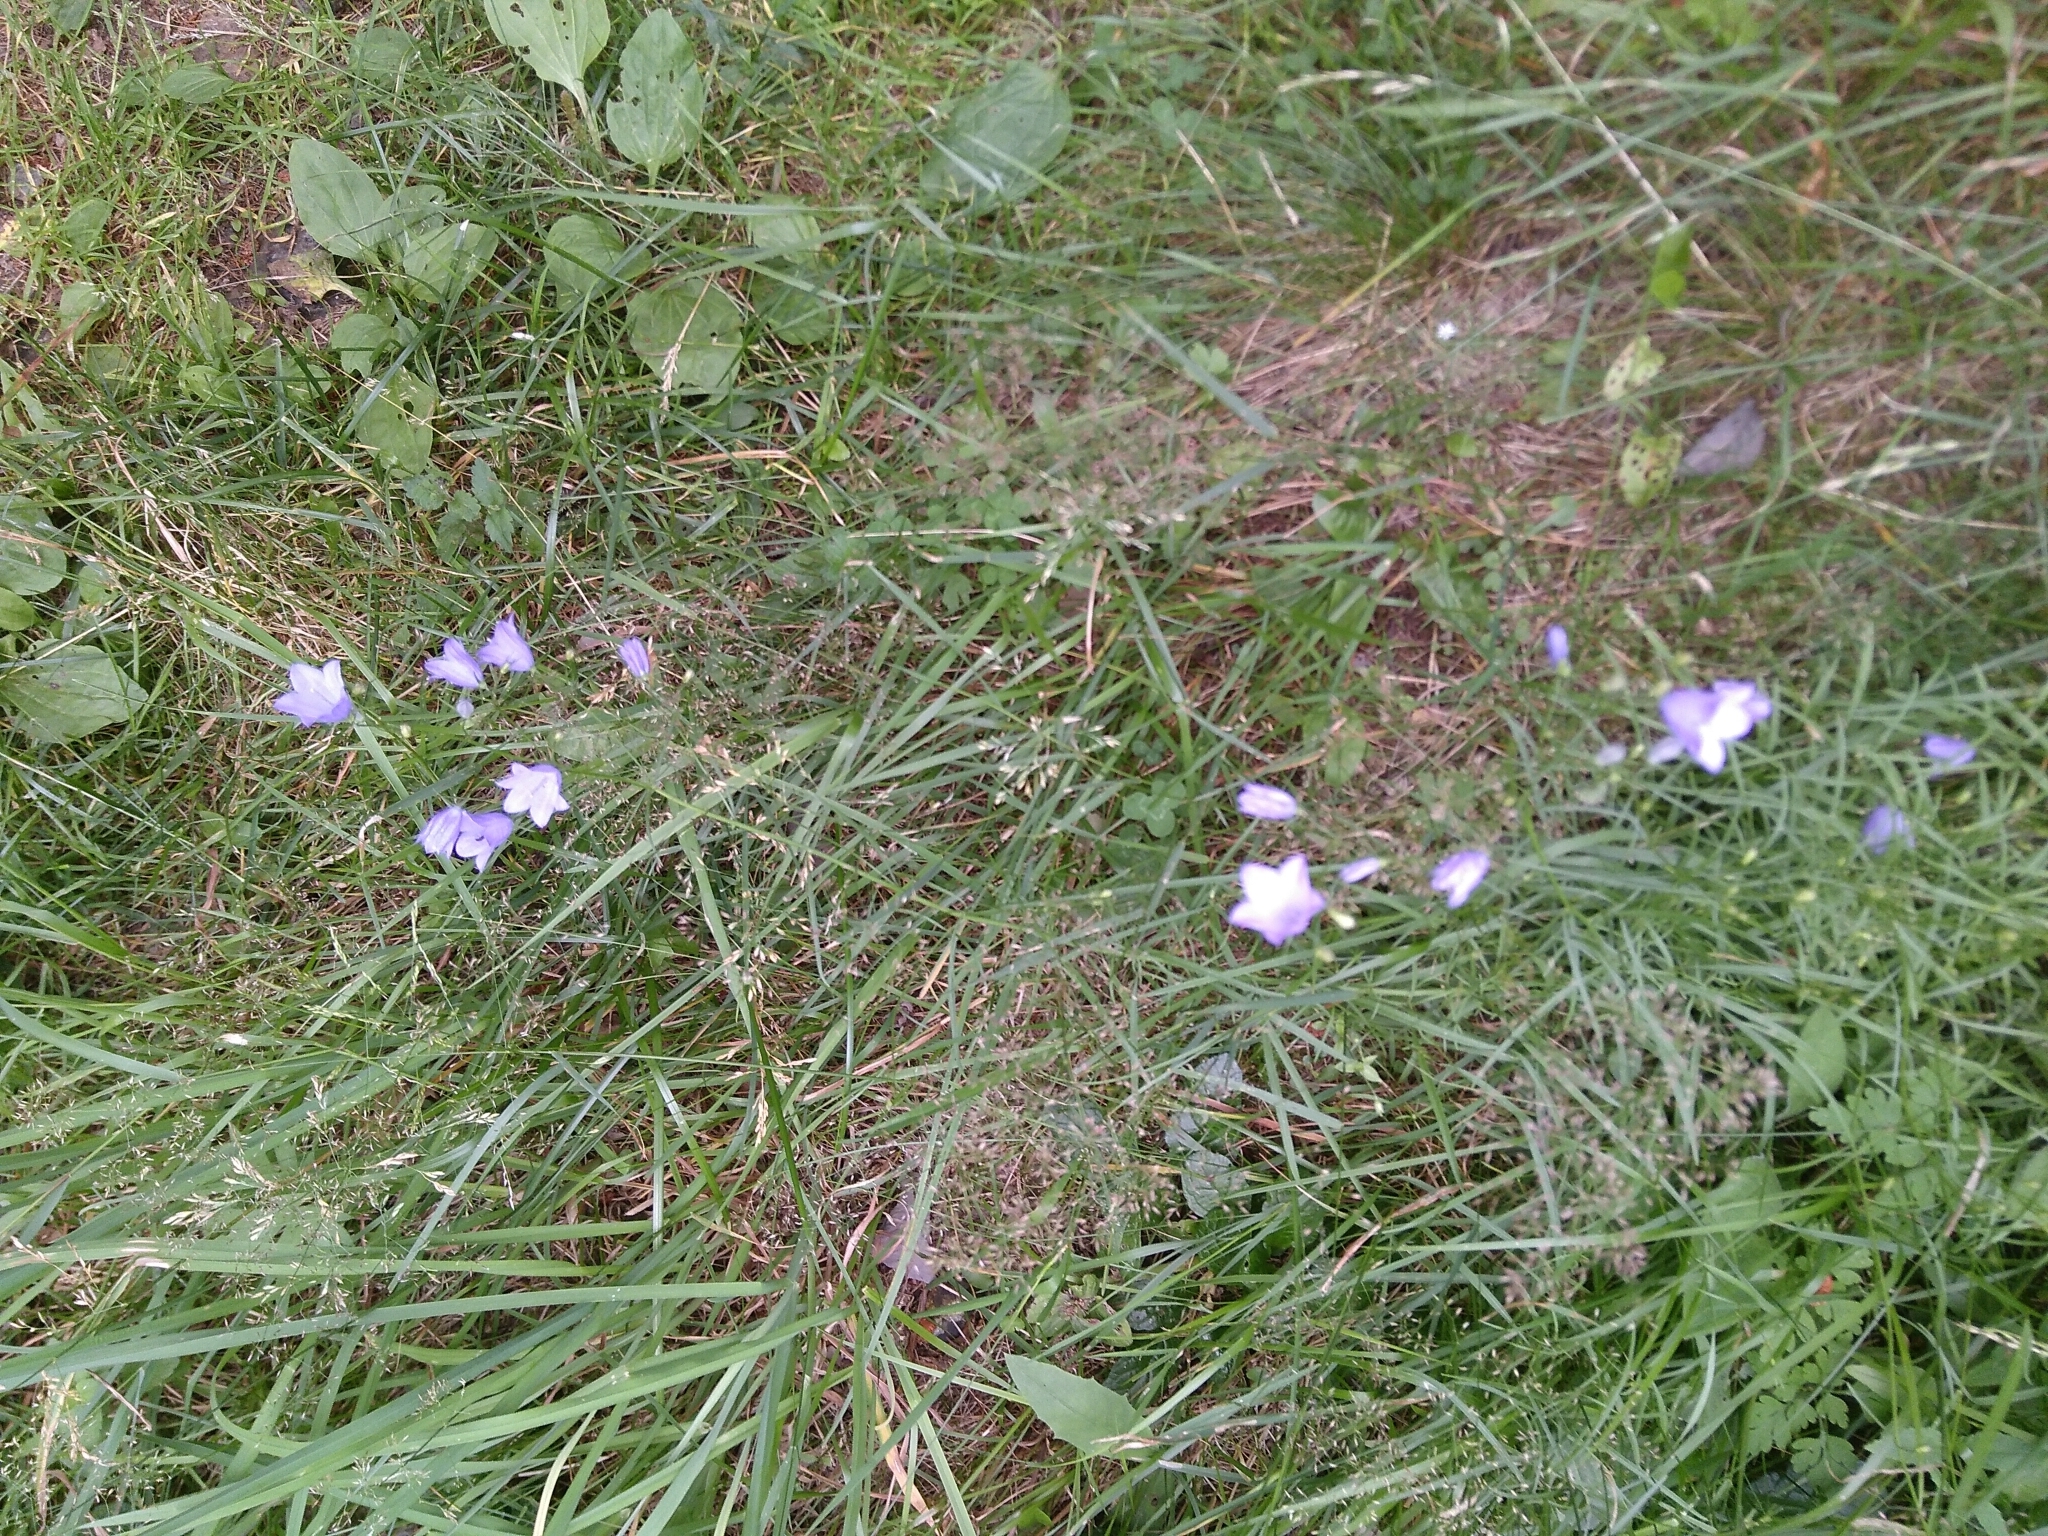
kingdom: Plantae
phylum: Tracheophyta
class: Magnoliopsida
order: Asterales
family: Campanulaceae
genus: Campanula
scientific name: Campanula rotundifolia
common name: Harebell
